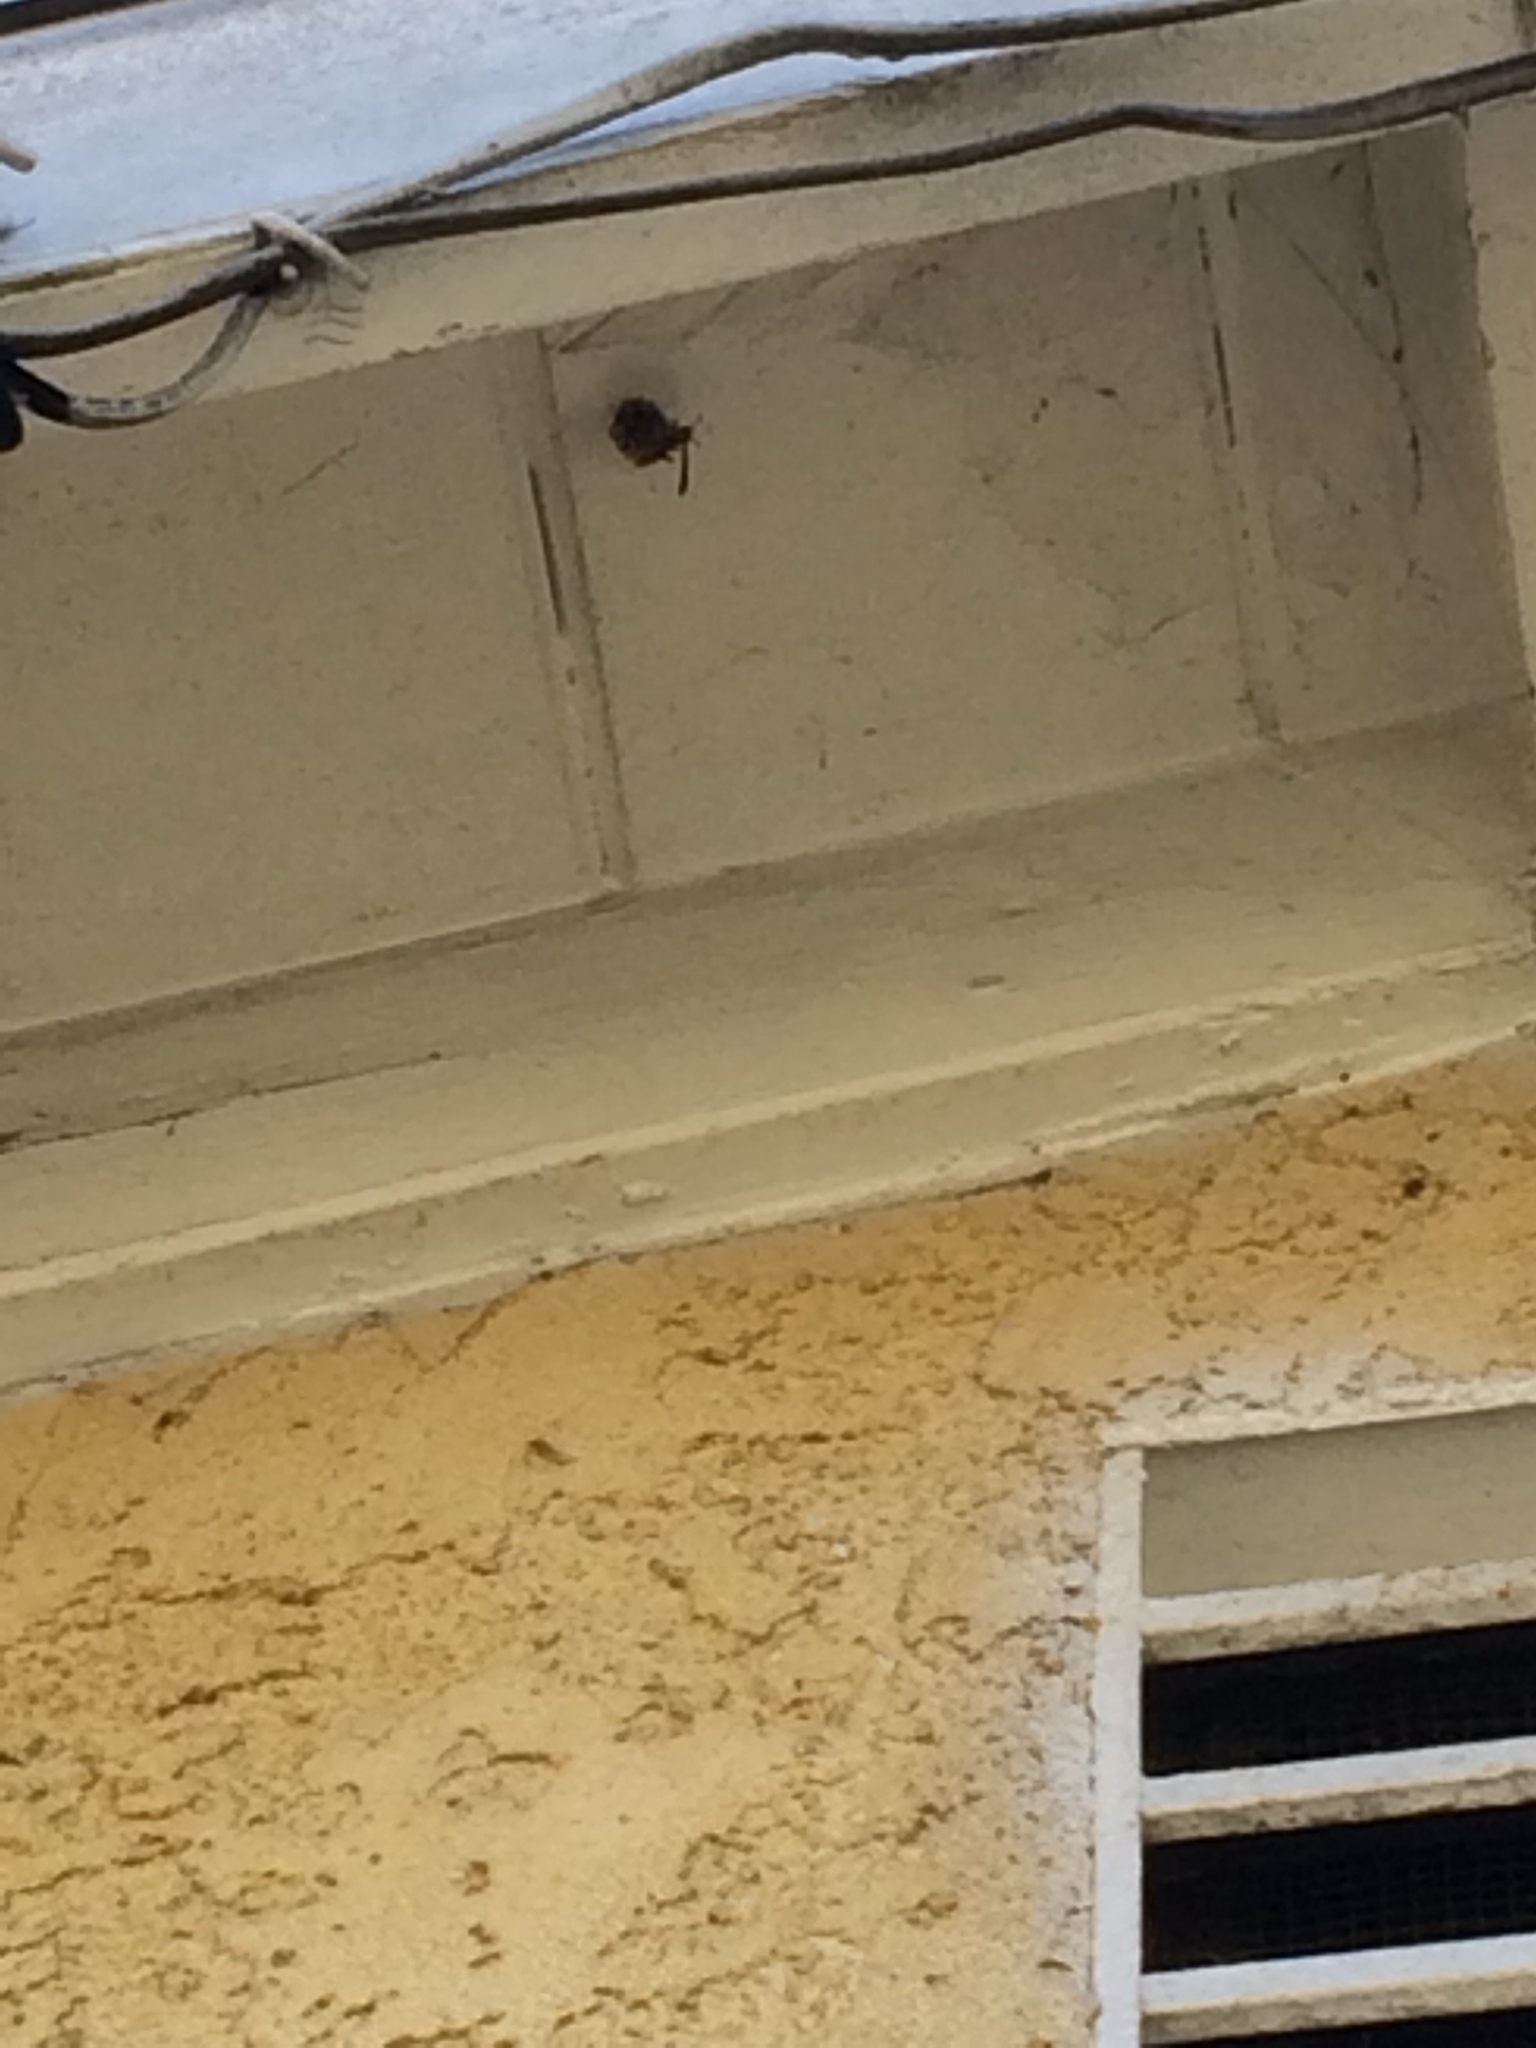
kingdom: Animalia
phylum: Arthropoda
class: Insecta
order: Hymenoptera
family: Vespidae
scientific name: Vespidae
